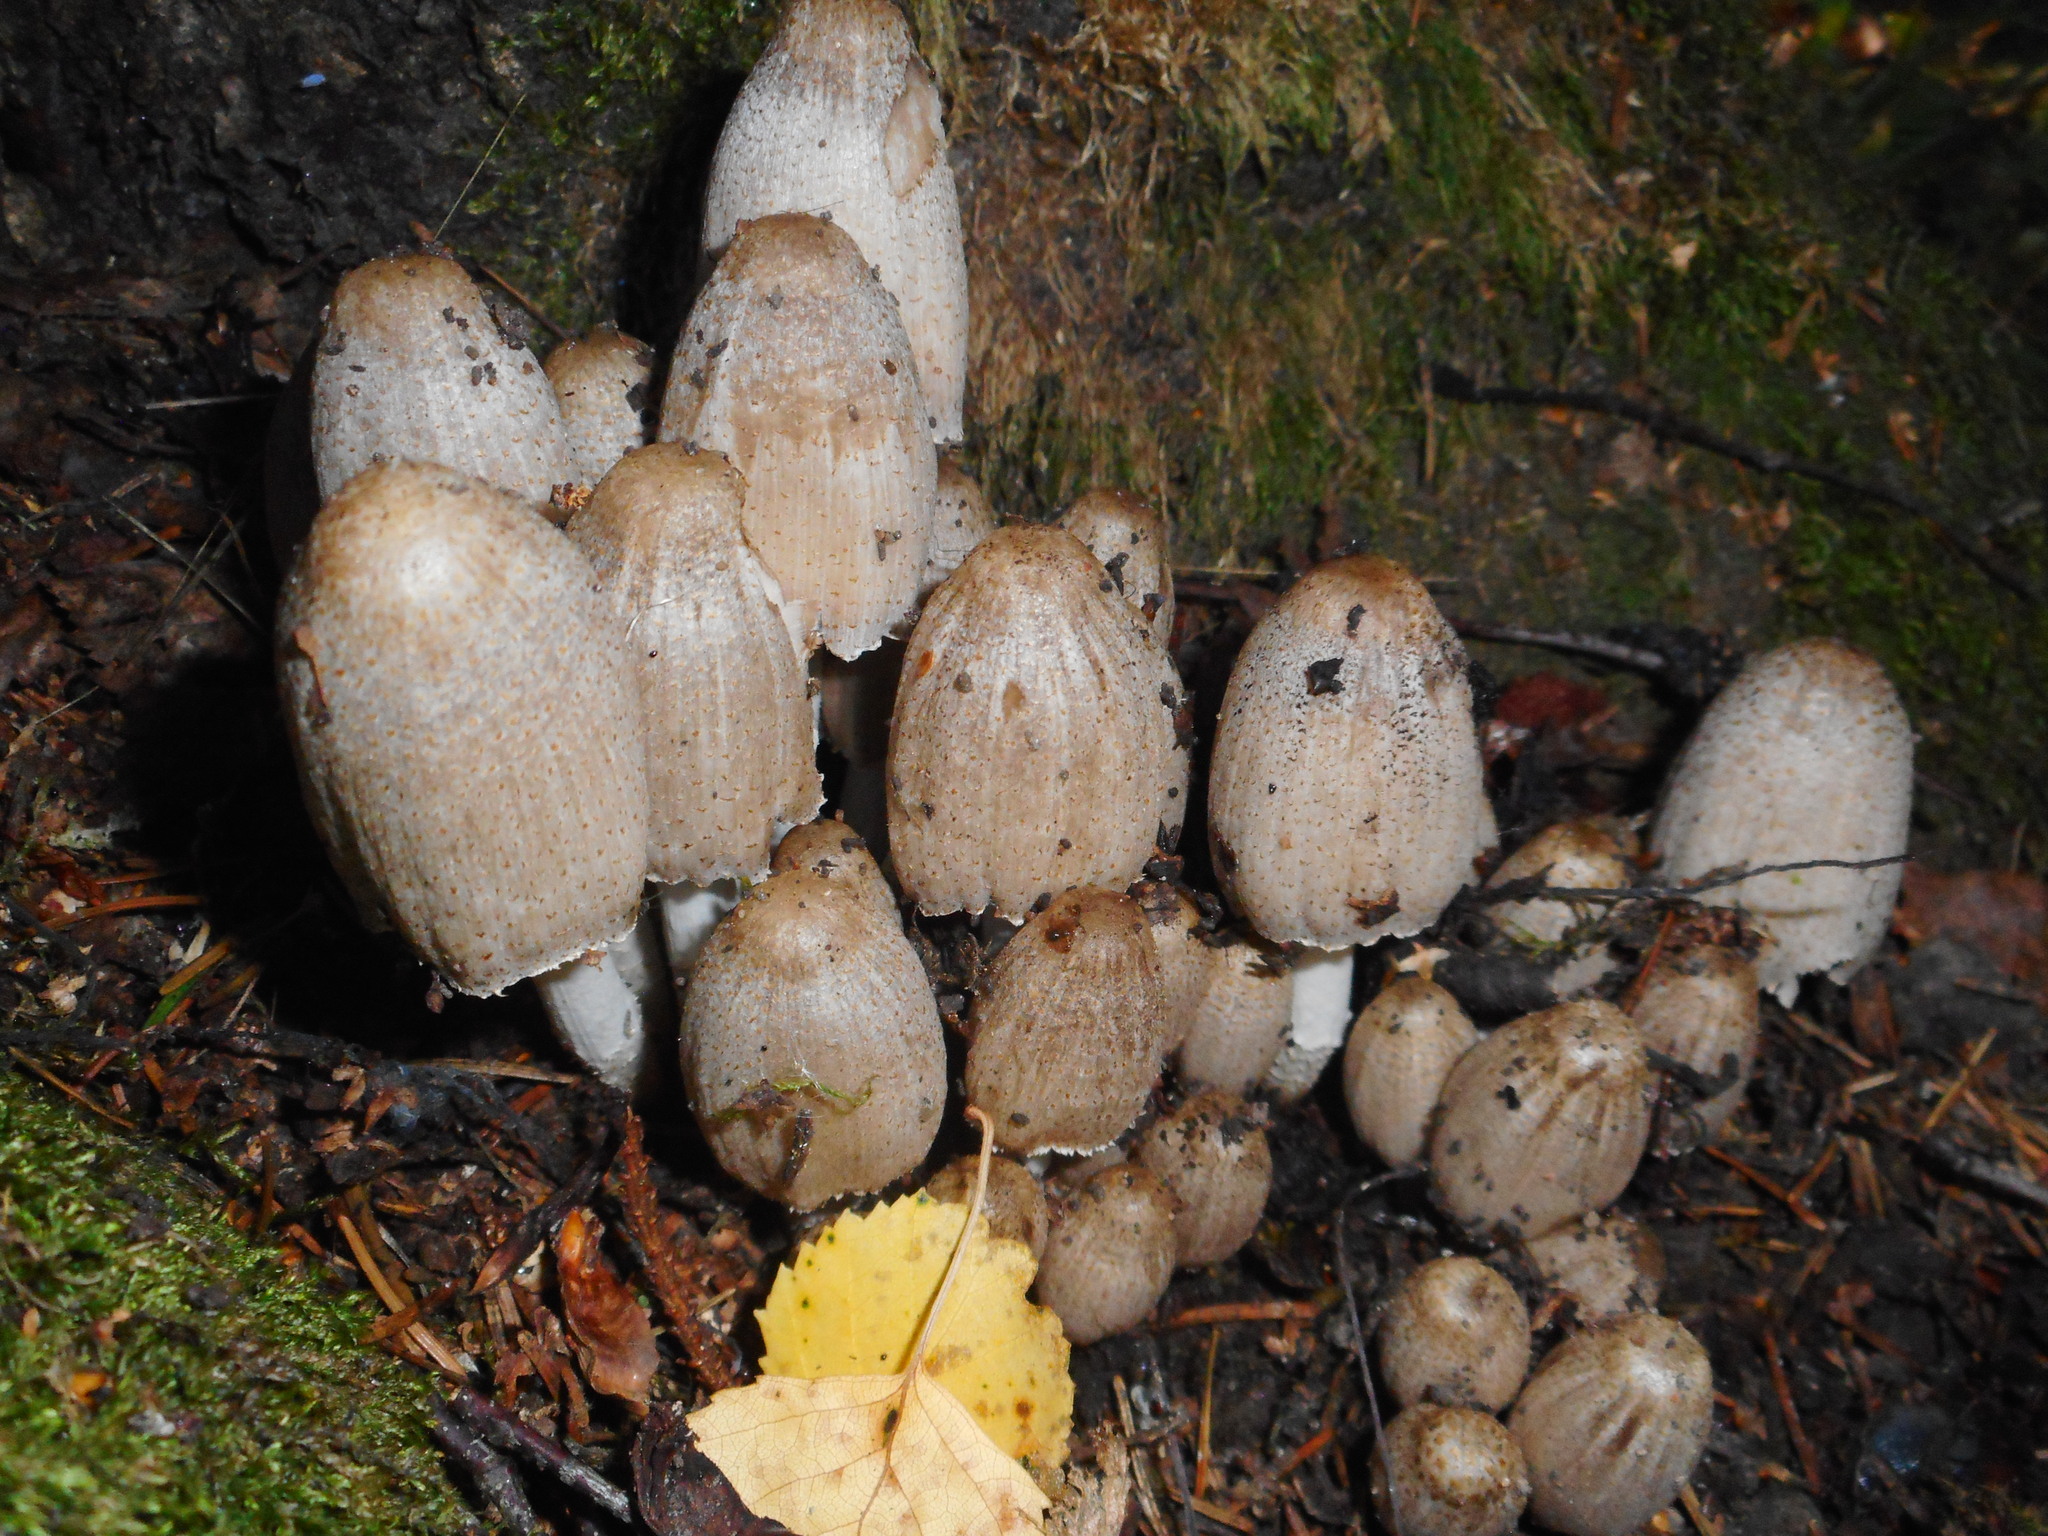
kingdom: Fungi
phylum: Basidiomycota
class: Agaricomycetes
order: Agaricales
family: Psathyrellaceae
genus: Coprinopsis
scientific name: Coprinopsis romagnesiana
